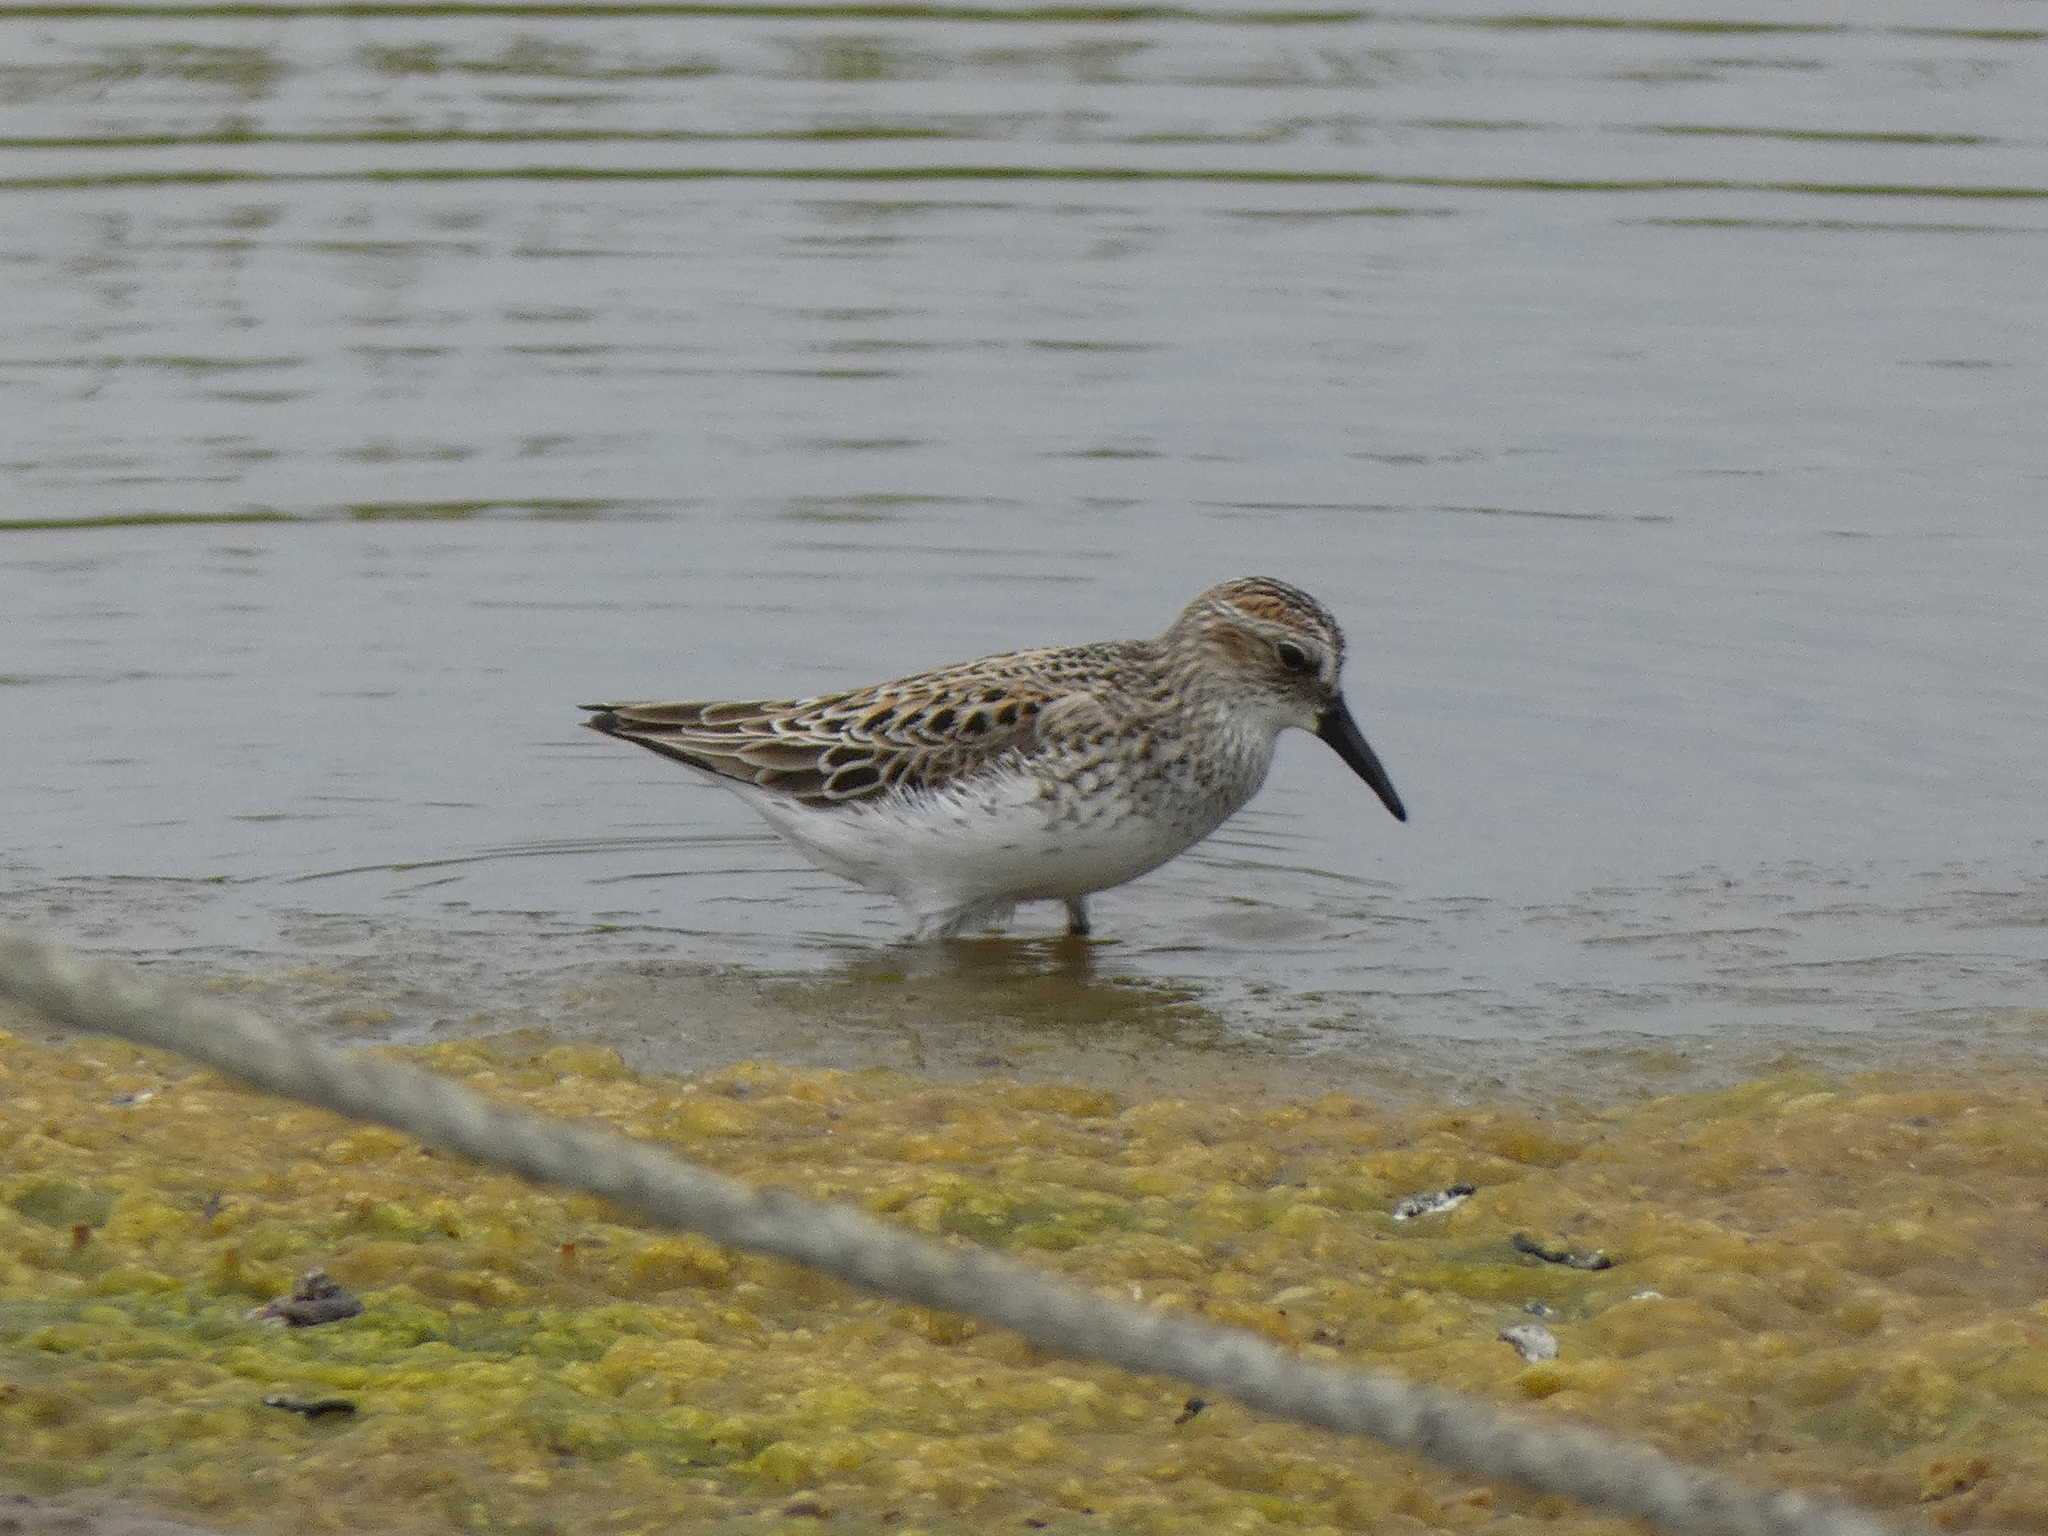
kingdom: Animalia
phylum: Chordata
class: Aves
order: Charadriiformes
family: Scolopacidae
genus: Calidris
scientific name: Calidris pusilla
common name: Semipalmated sandpiper
